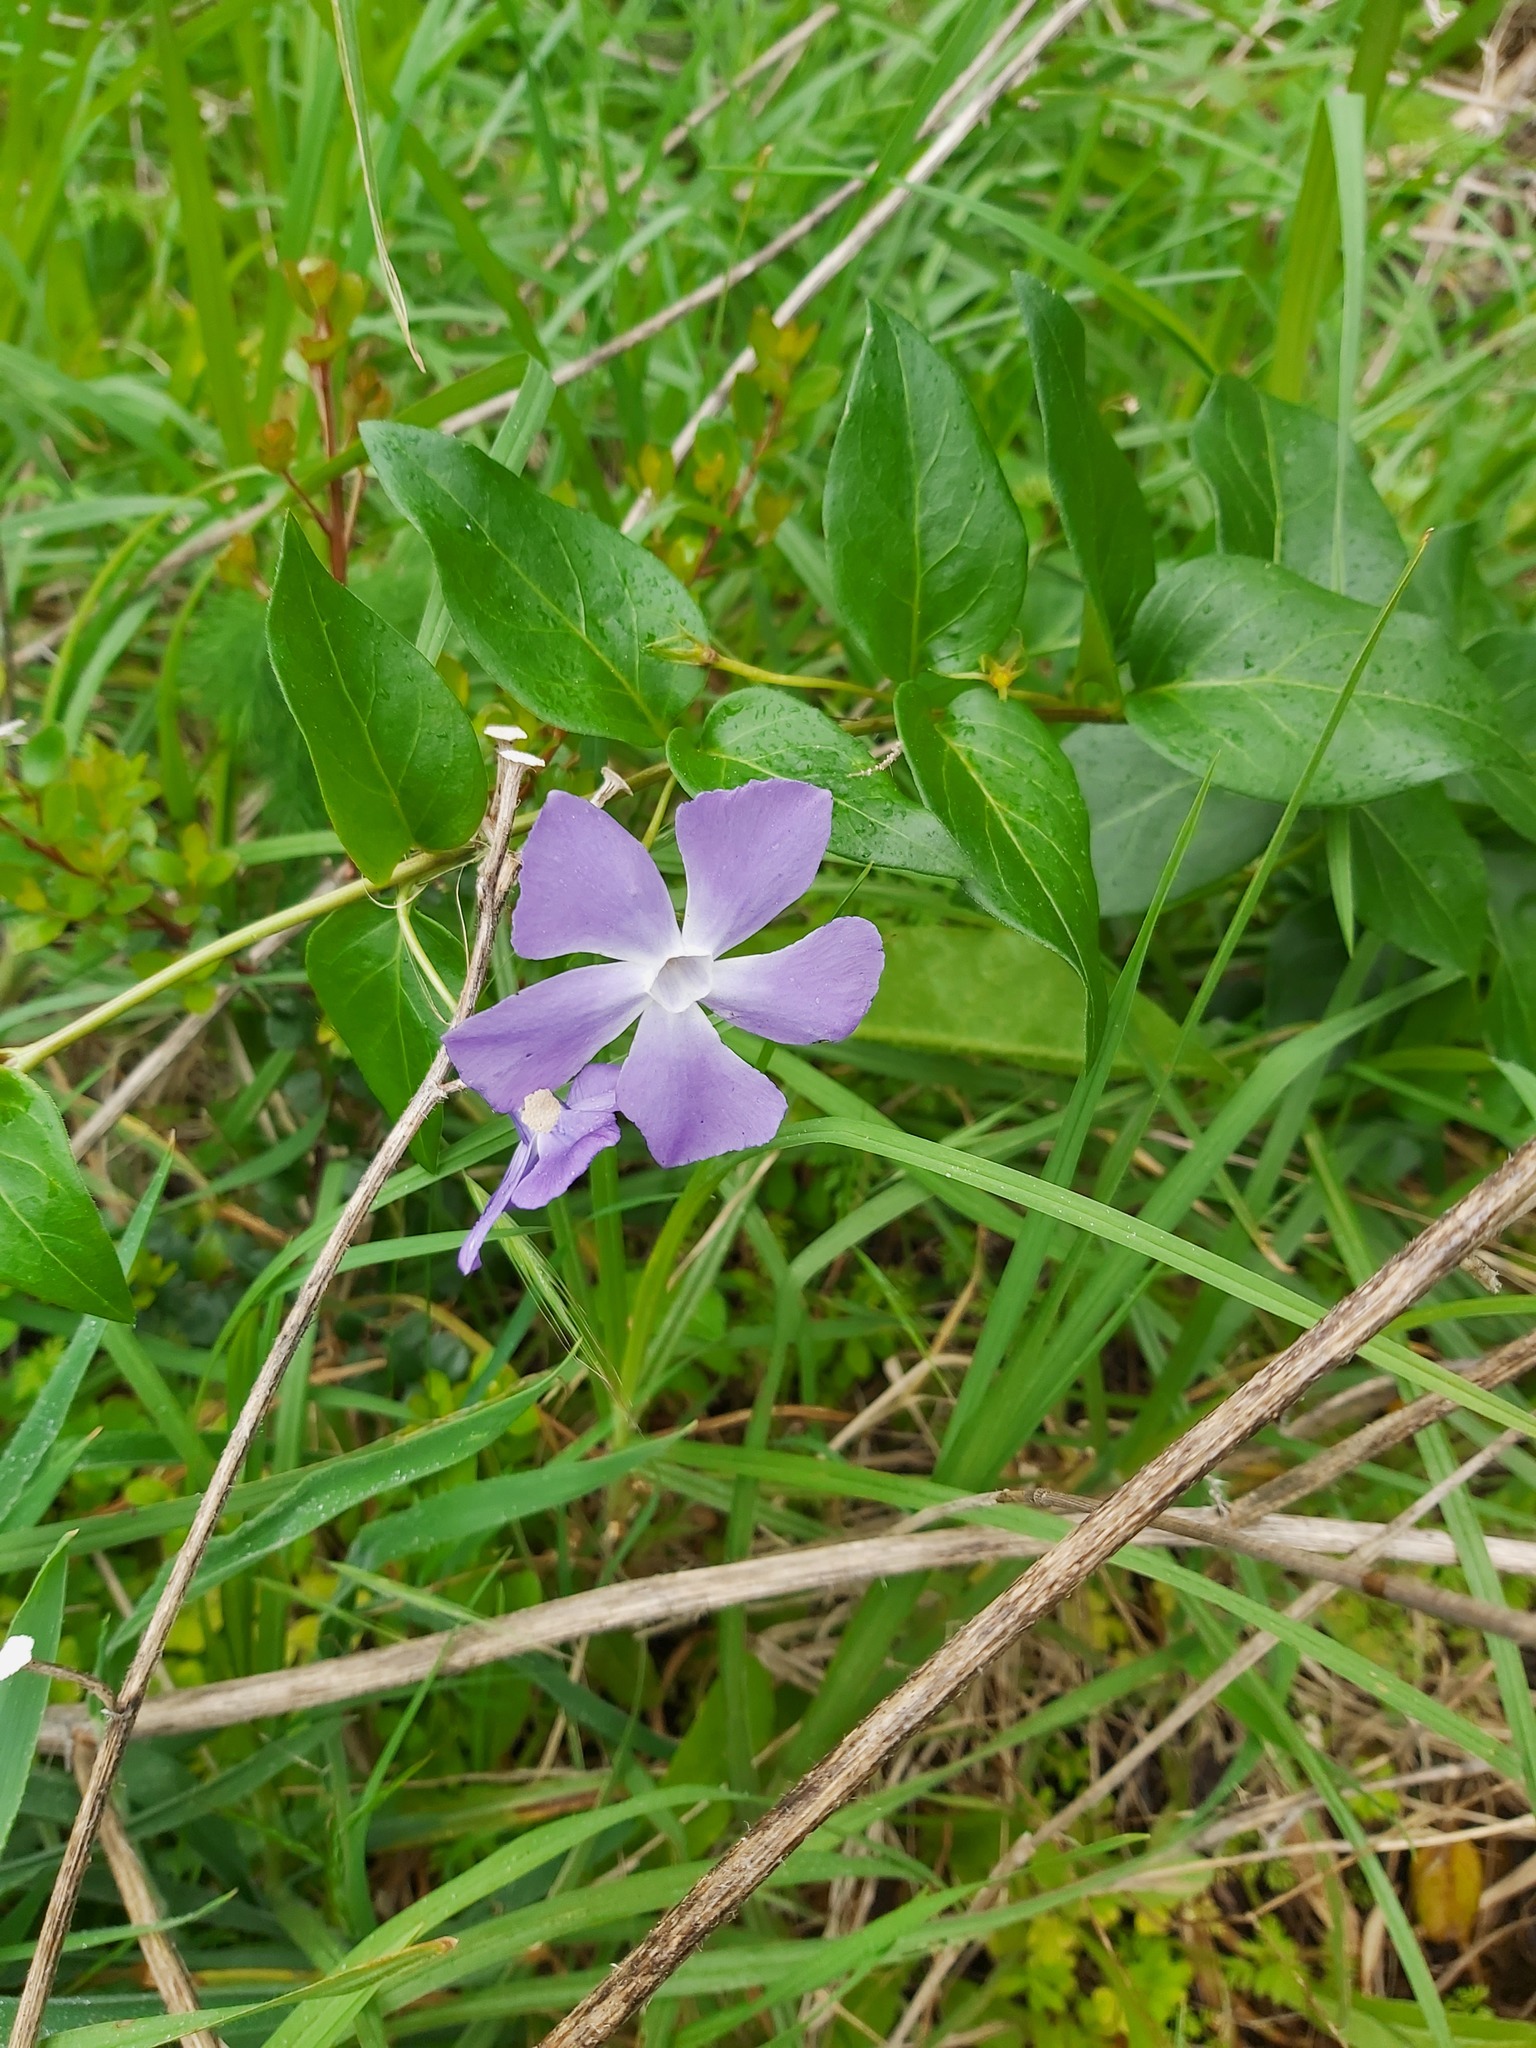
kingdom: Plantae
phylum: Tracheophyta
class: Magnoliopsida
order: Gentianales
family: Apocynaceae
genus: Vinca
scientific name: Vinca major
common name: Greater periwinkle
